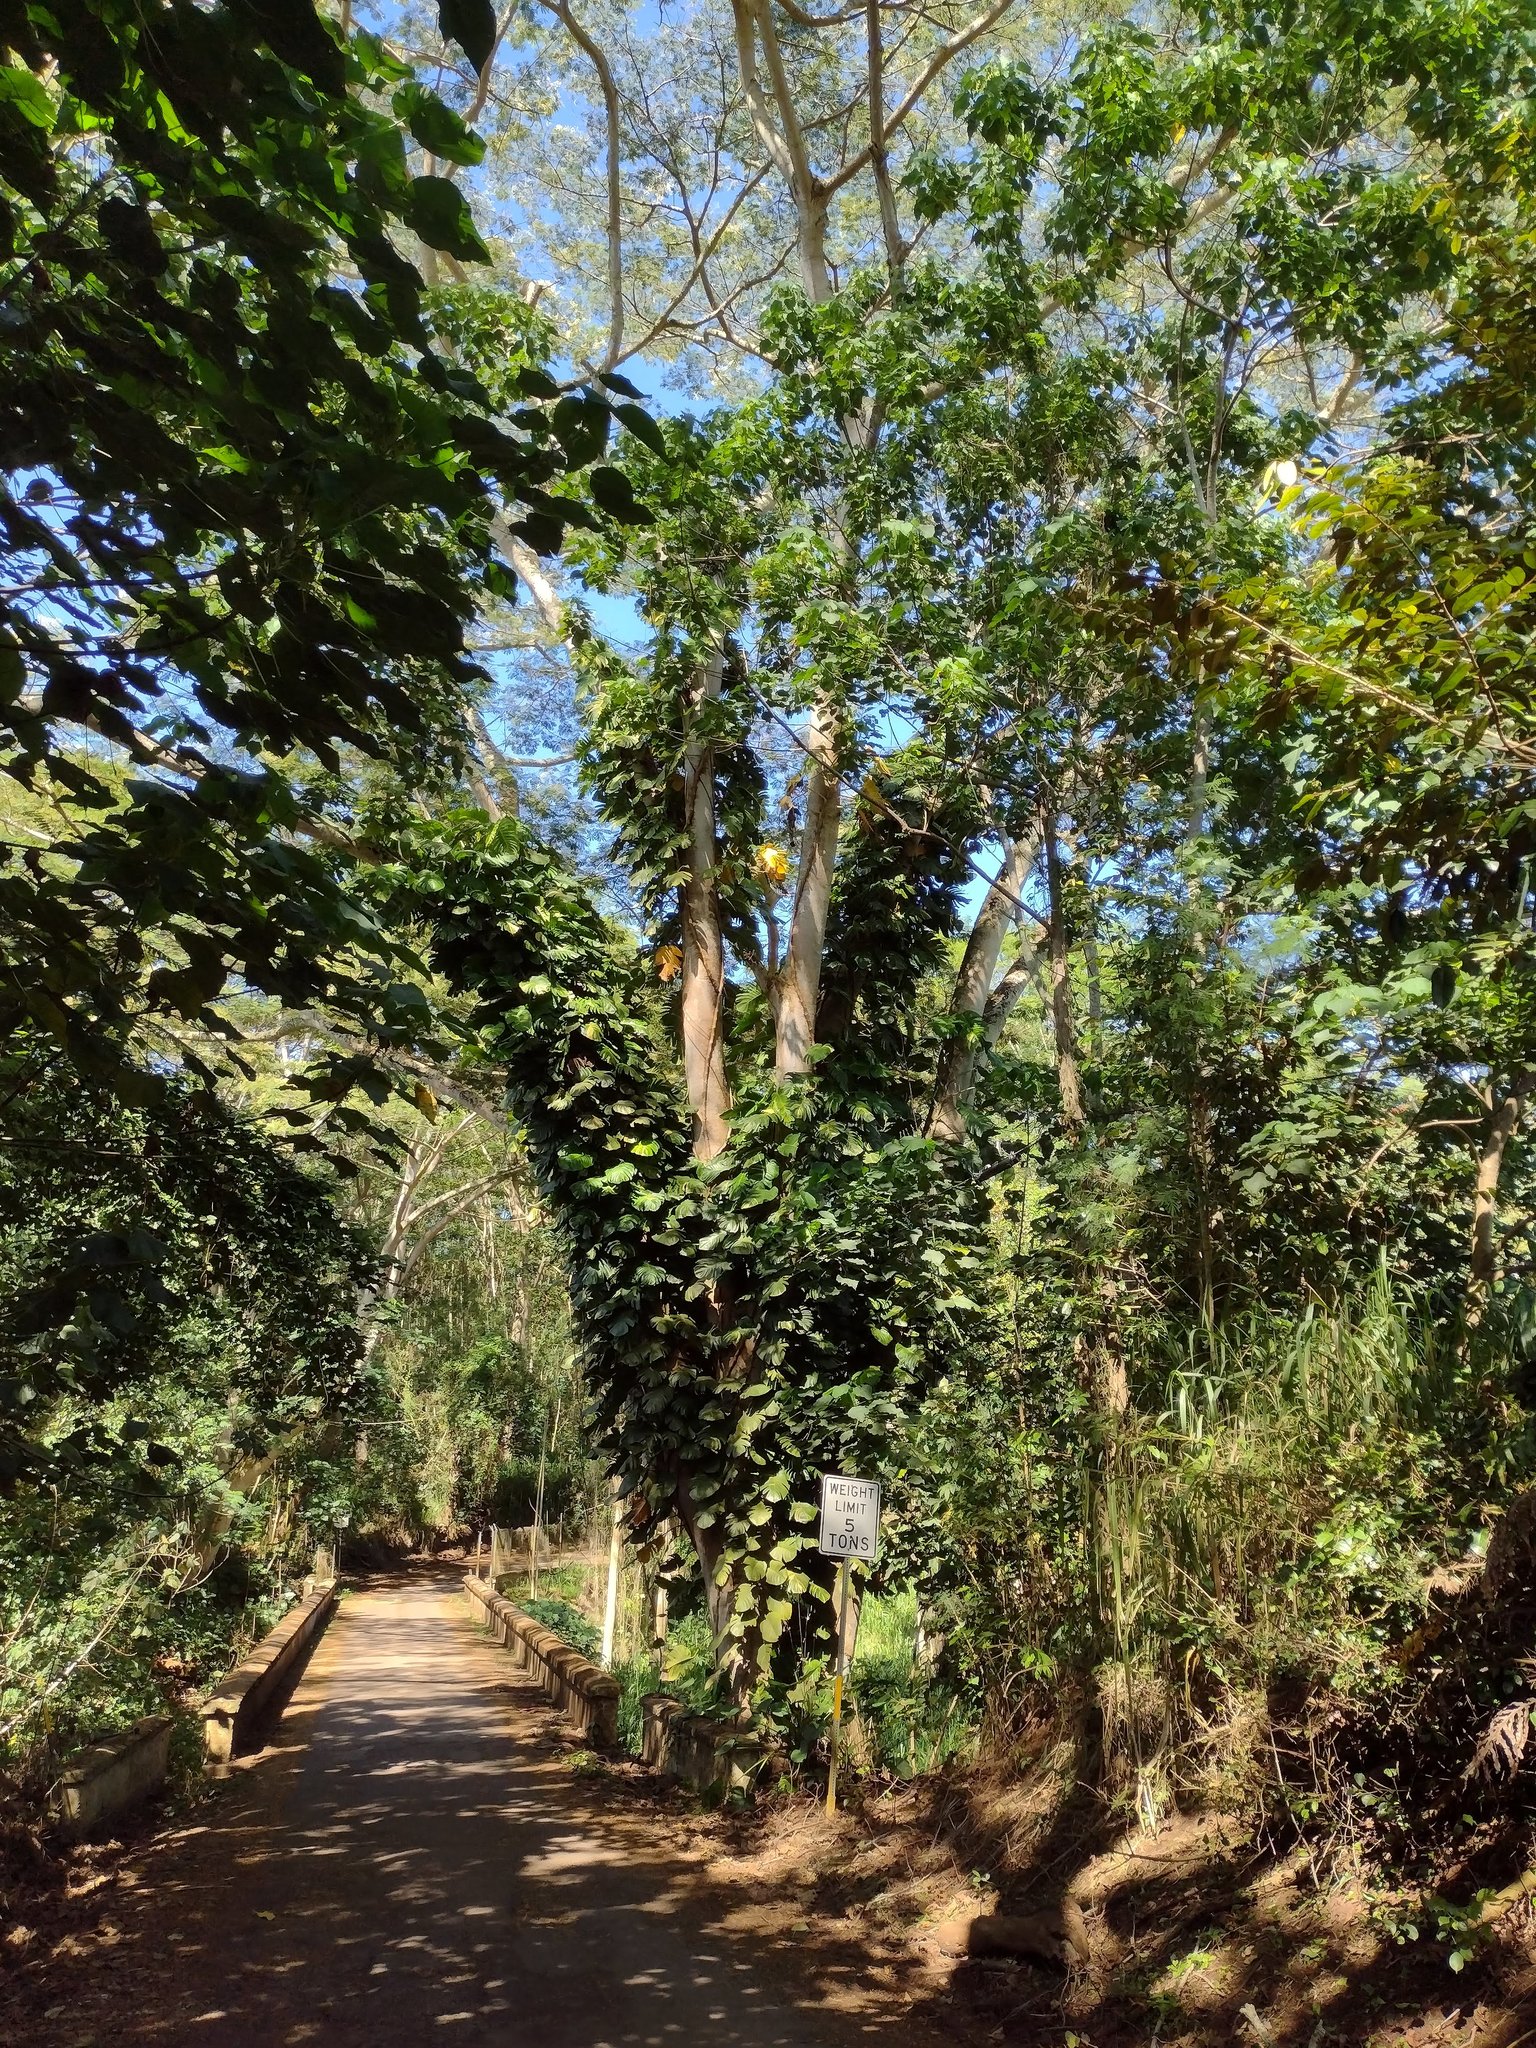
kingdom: Plantae
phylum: Tracheophyta
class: Liliopsida
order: Alismatales
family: Araceae
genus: Epipremnum
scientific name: Epipremnum aureum
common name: Golden hunter's-robe
